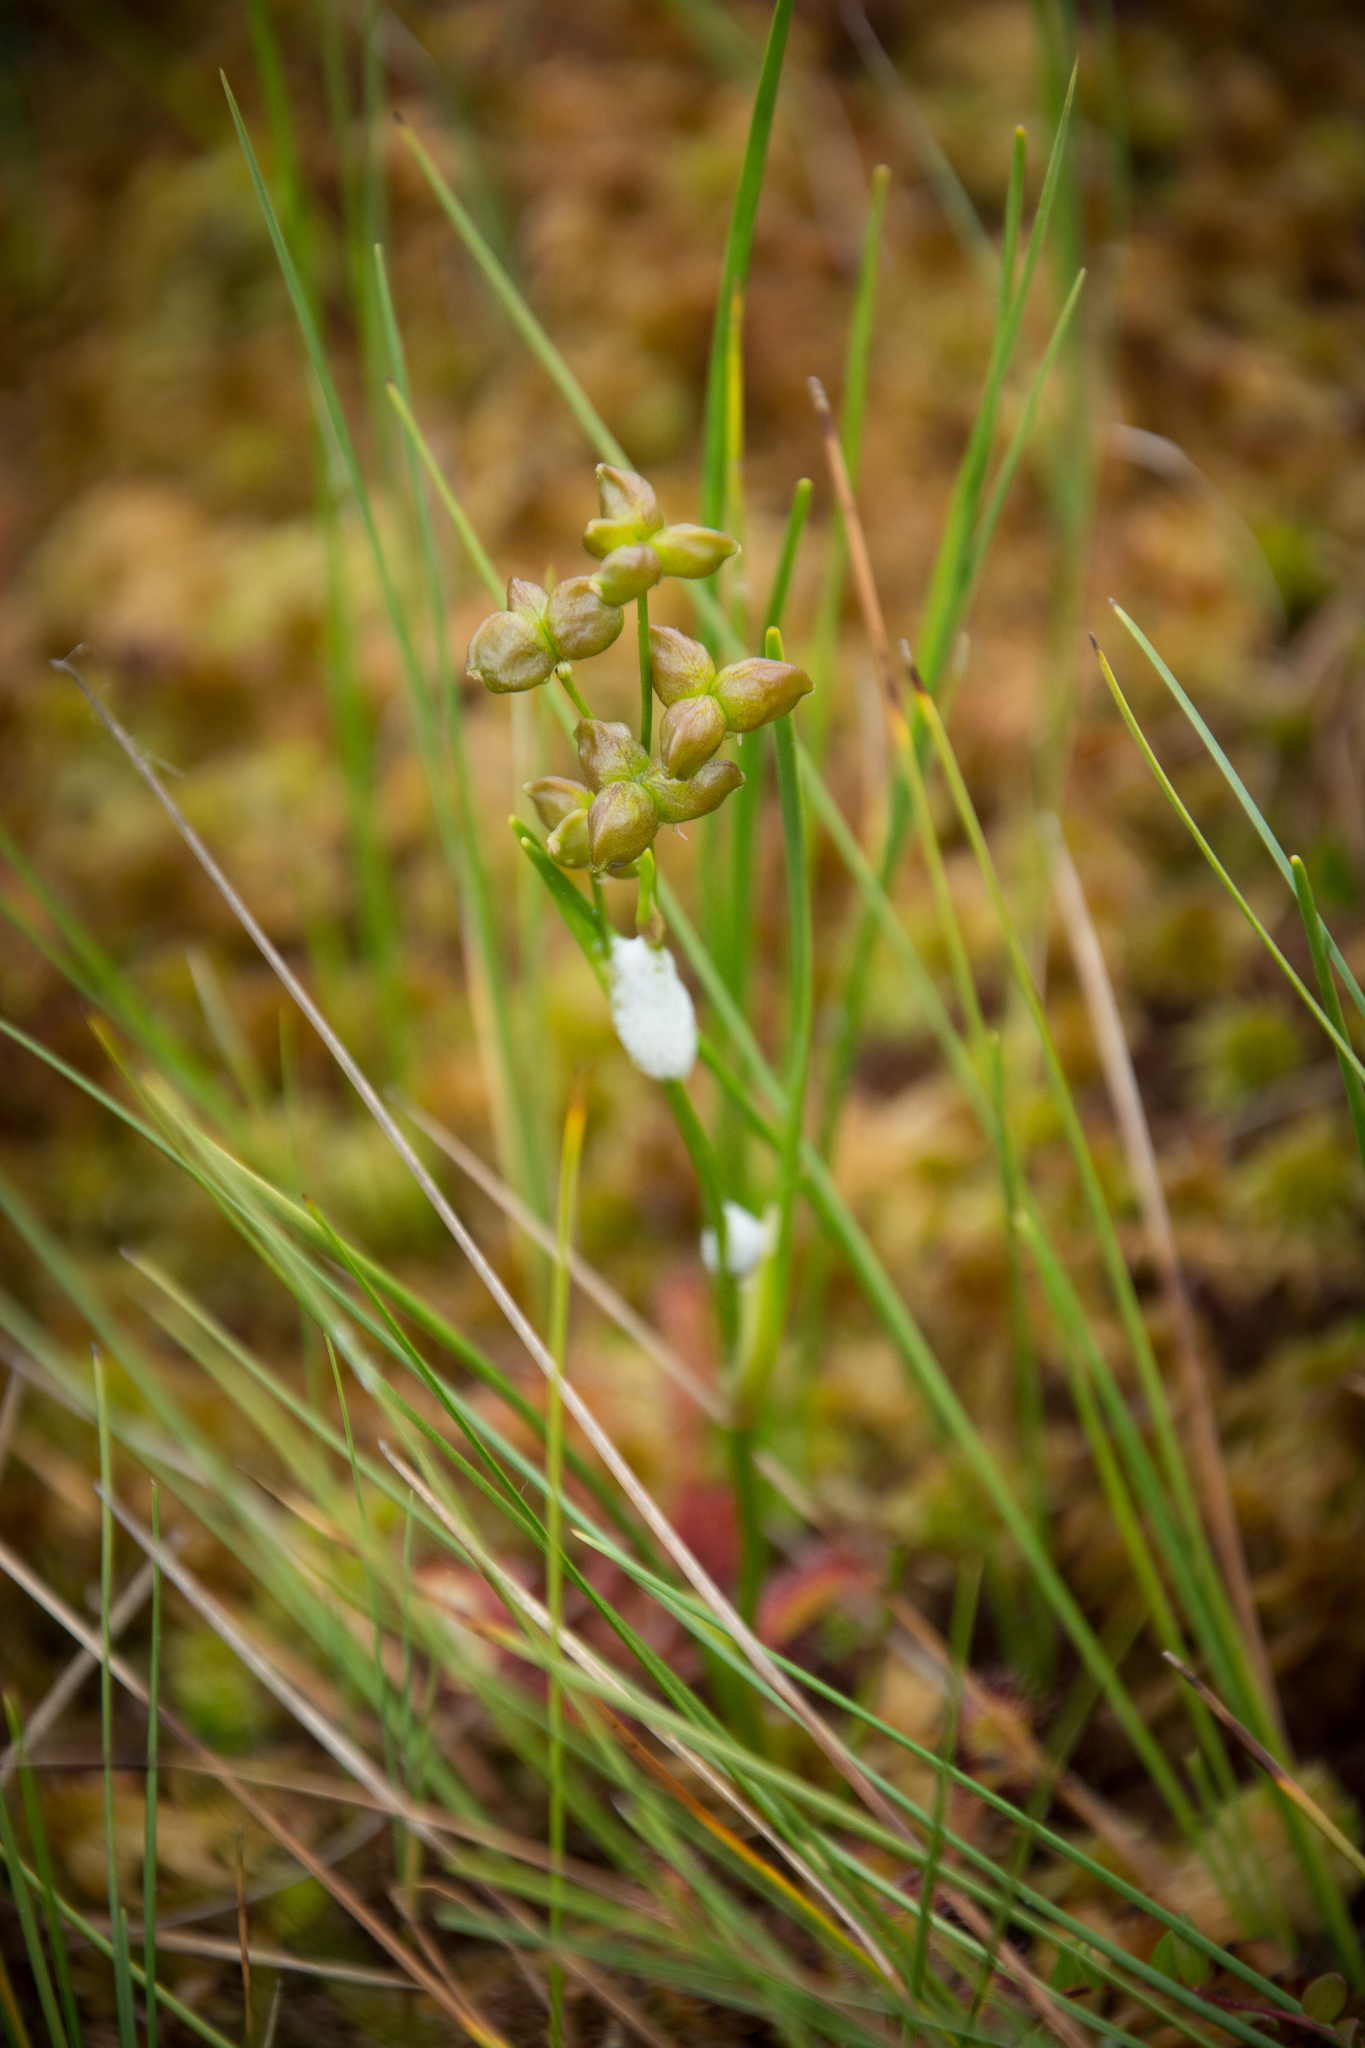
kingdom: Plantae
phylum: Tracheophyta
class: Liliopsida
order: Alismatales
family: Scheuchzeriaceae
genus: Scheuchzeria
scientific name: Scheuchzeria palustris
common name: Rannoch-rush
